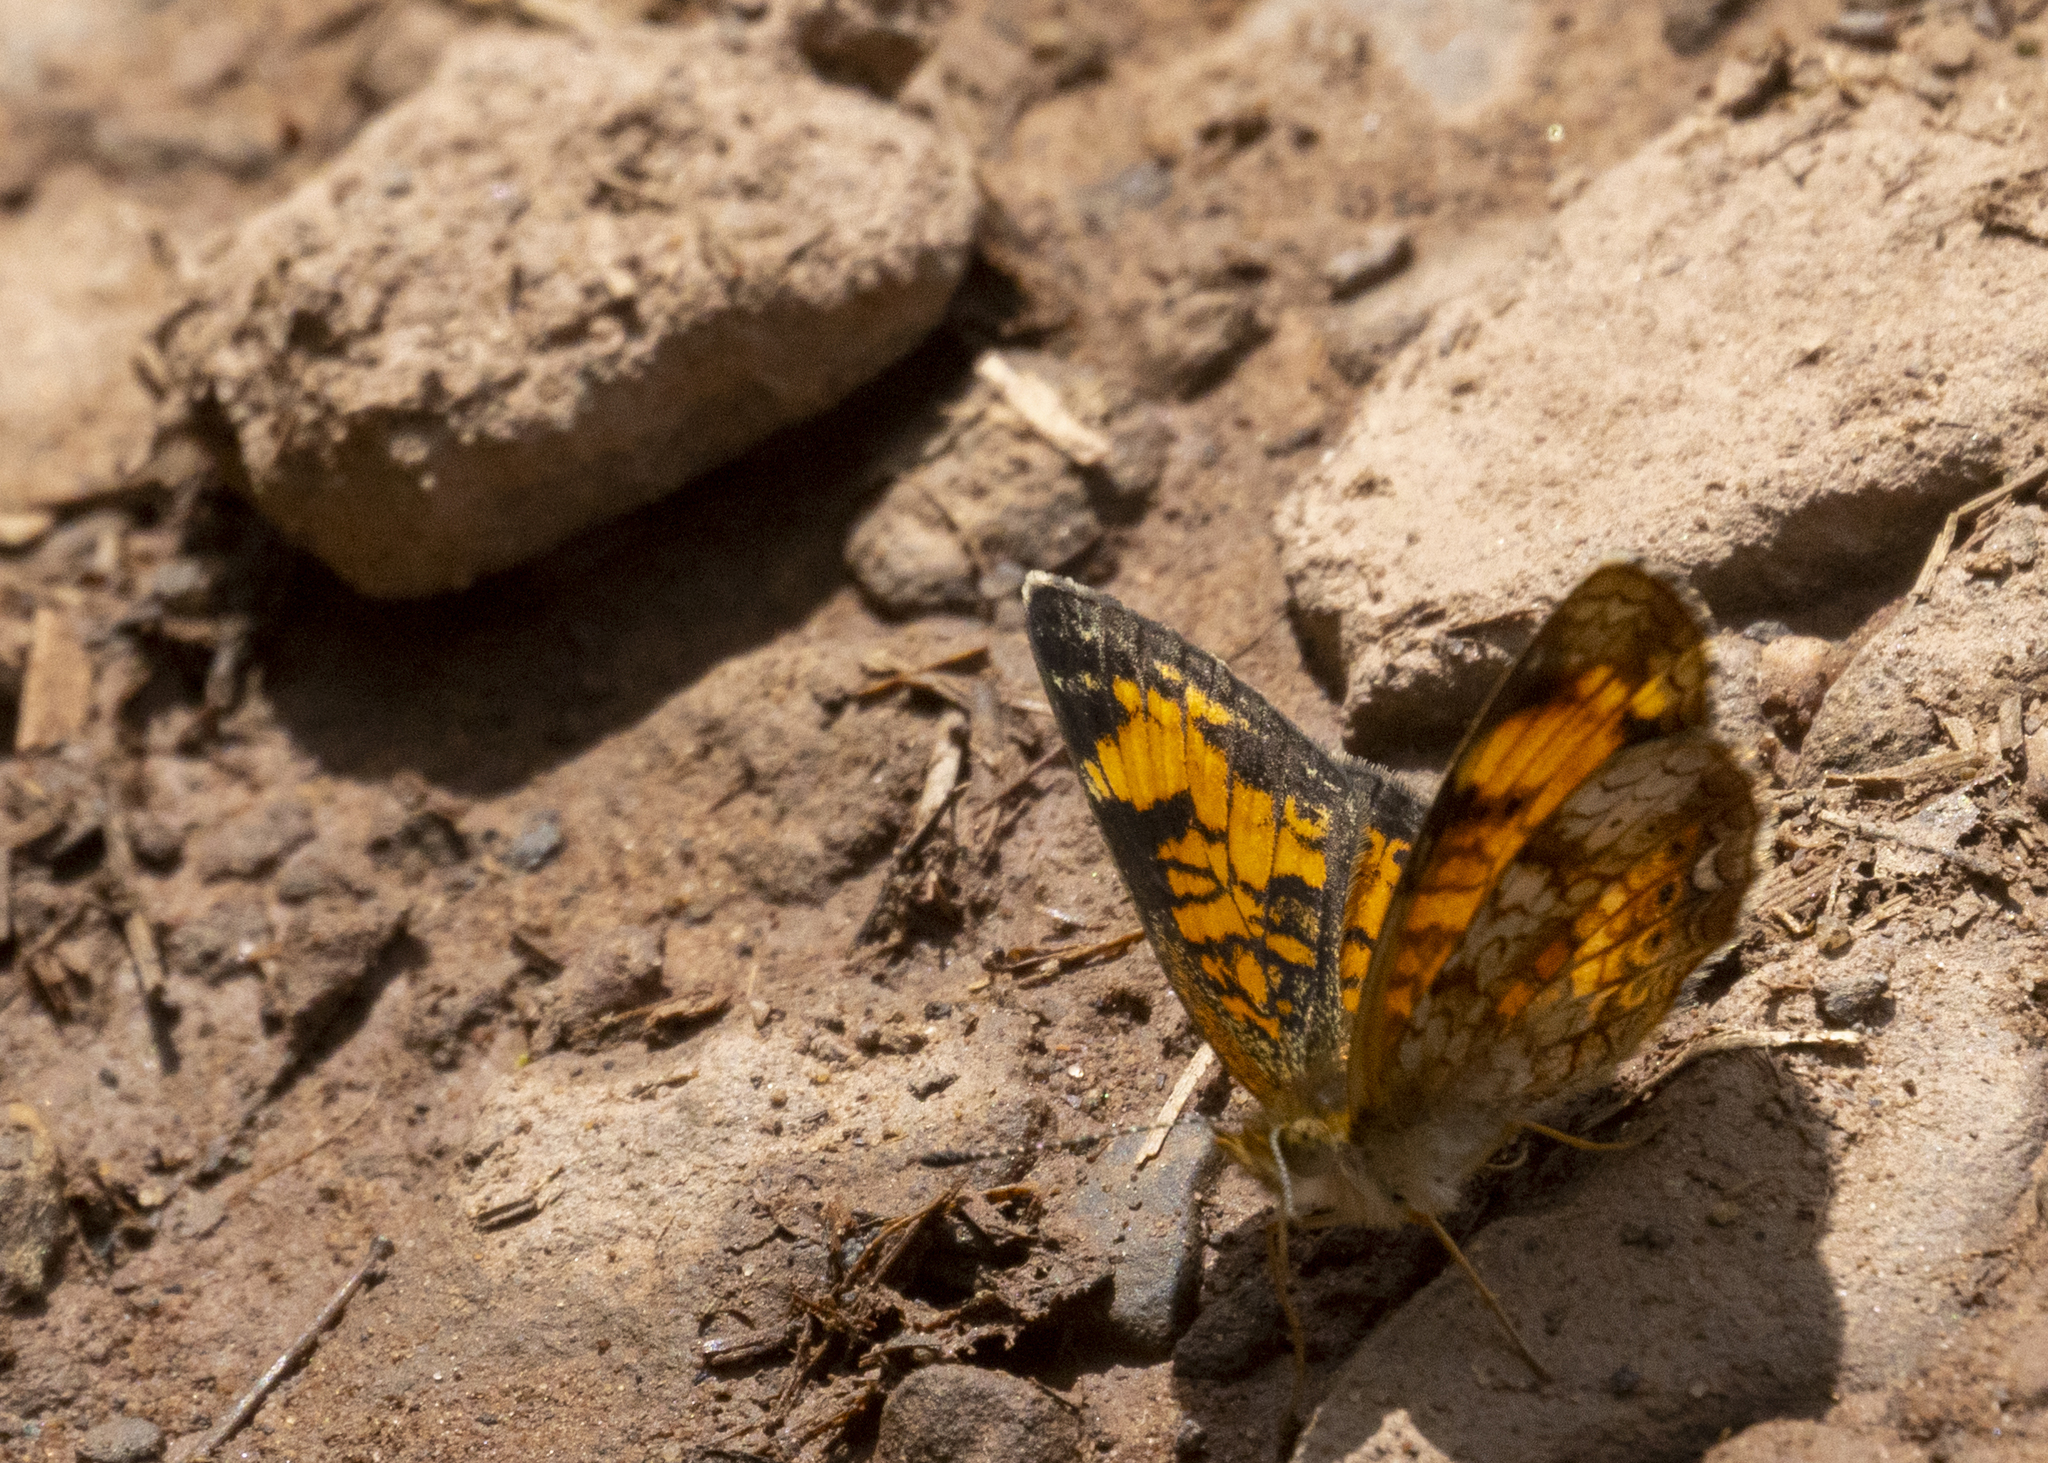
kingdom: Animalia
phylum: Arthropoda
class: Insecta
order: Lepidoptera
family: Nymphalidae
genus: Phyciodes
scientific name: Phyciodes tharos
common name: Pearl crescent
